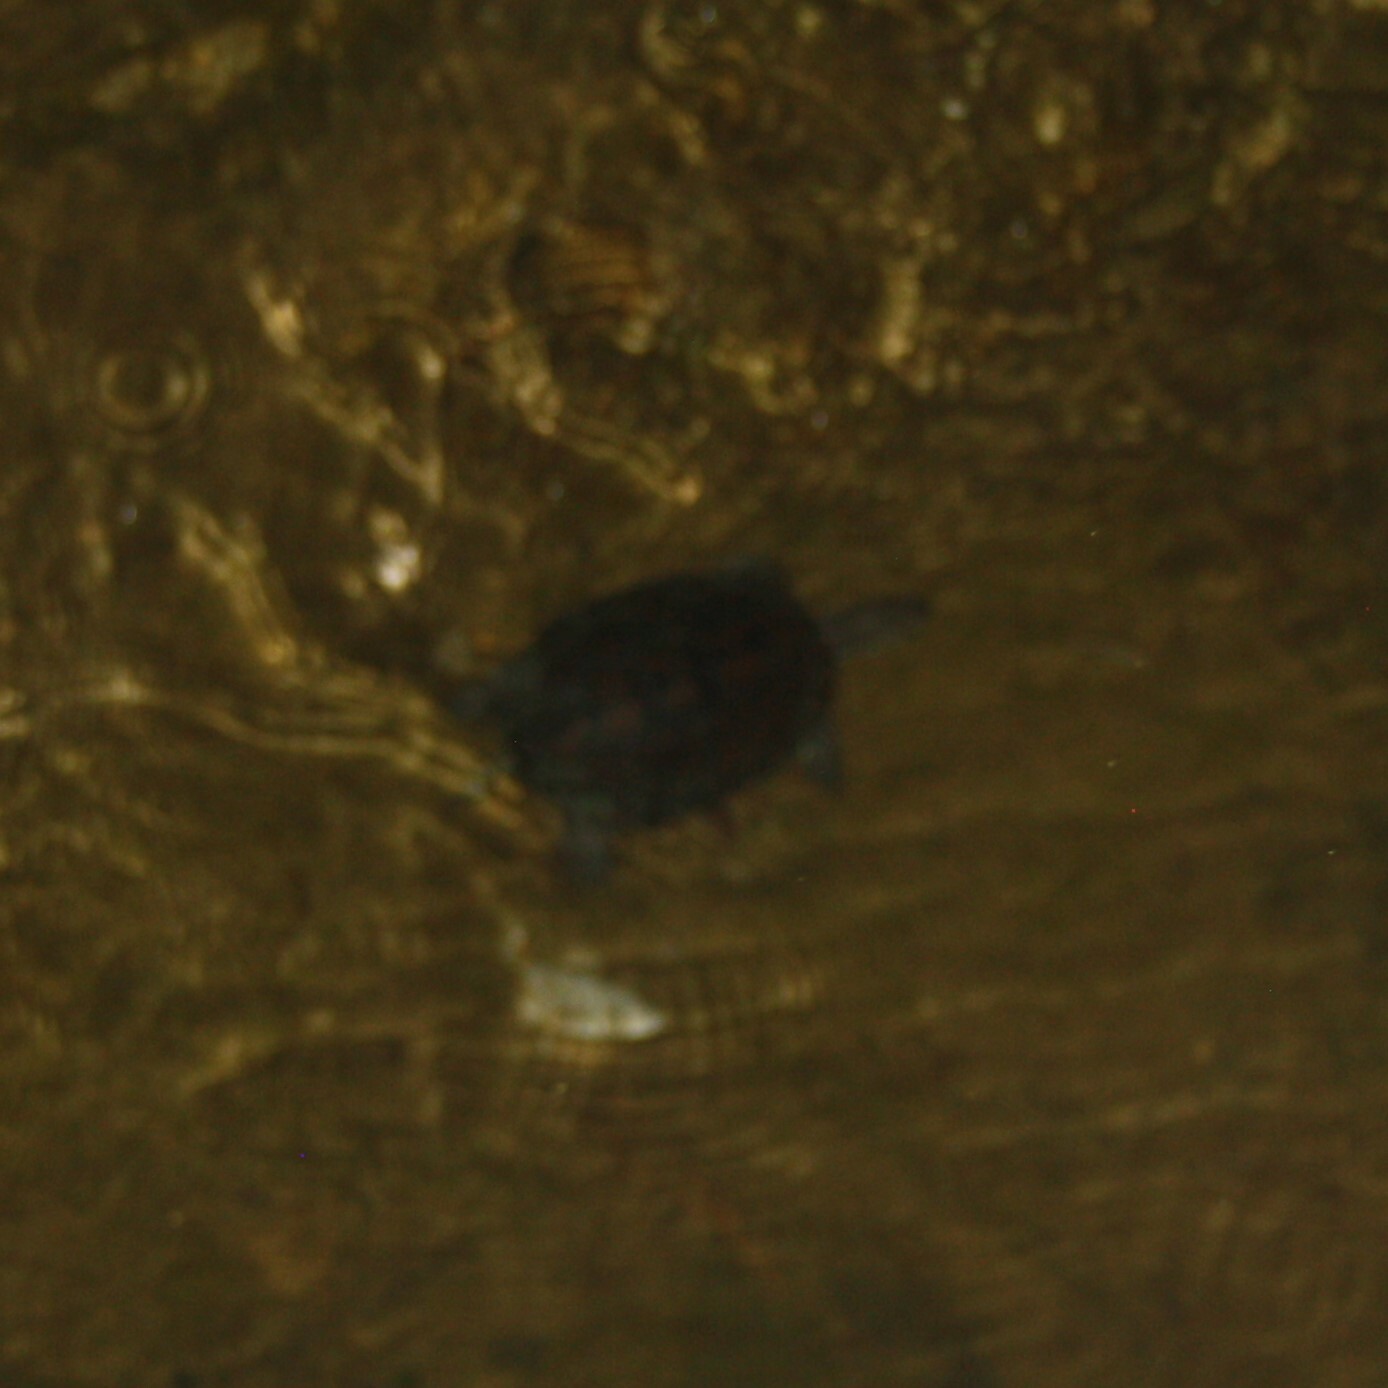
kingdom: Animalia
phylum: Chordata
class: Testudines
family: Geoemydidae
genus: Mauremys
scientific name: Mauremys rivulata
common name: Western caspian turtle
